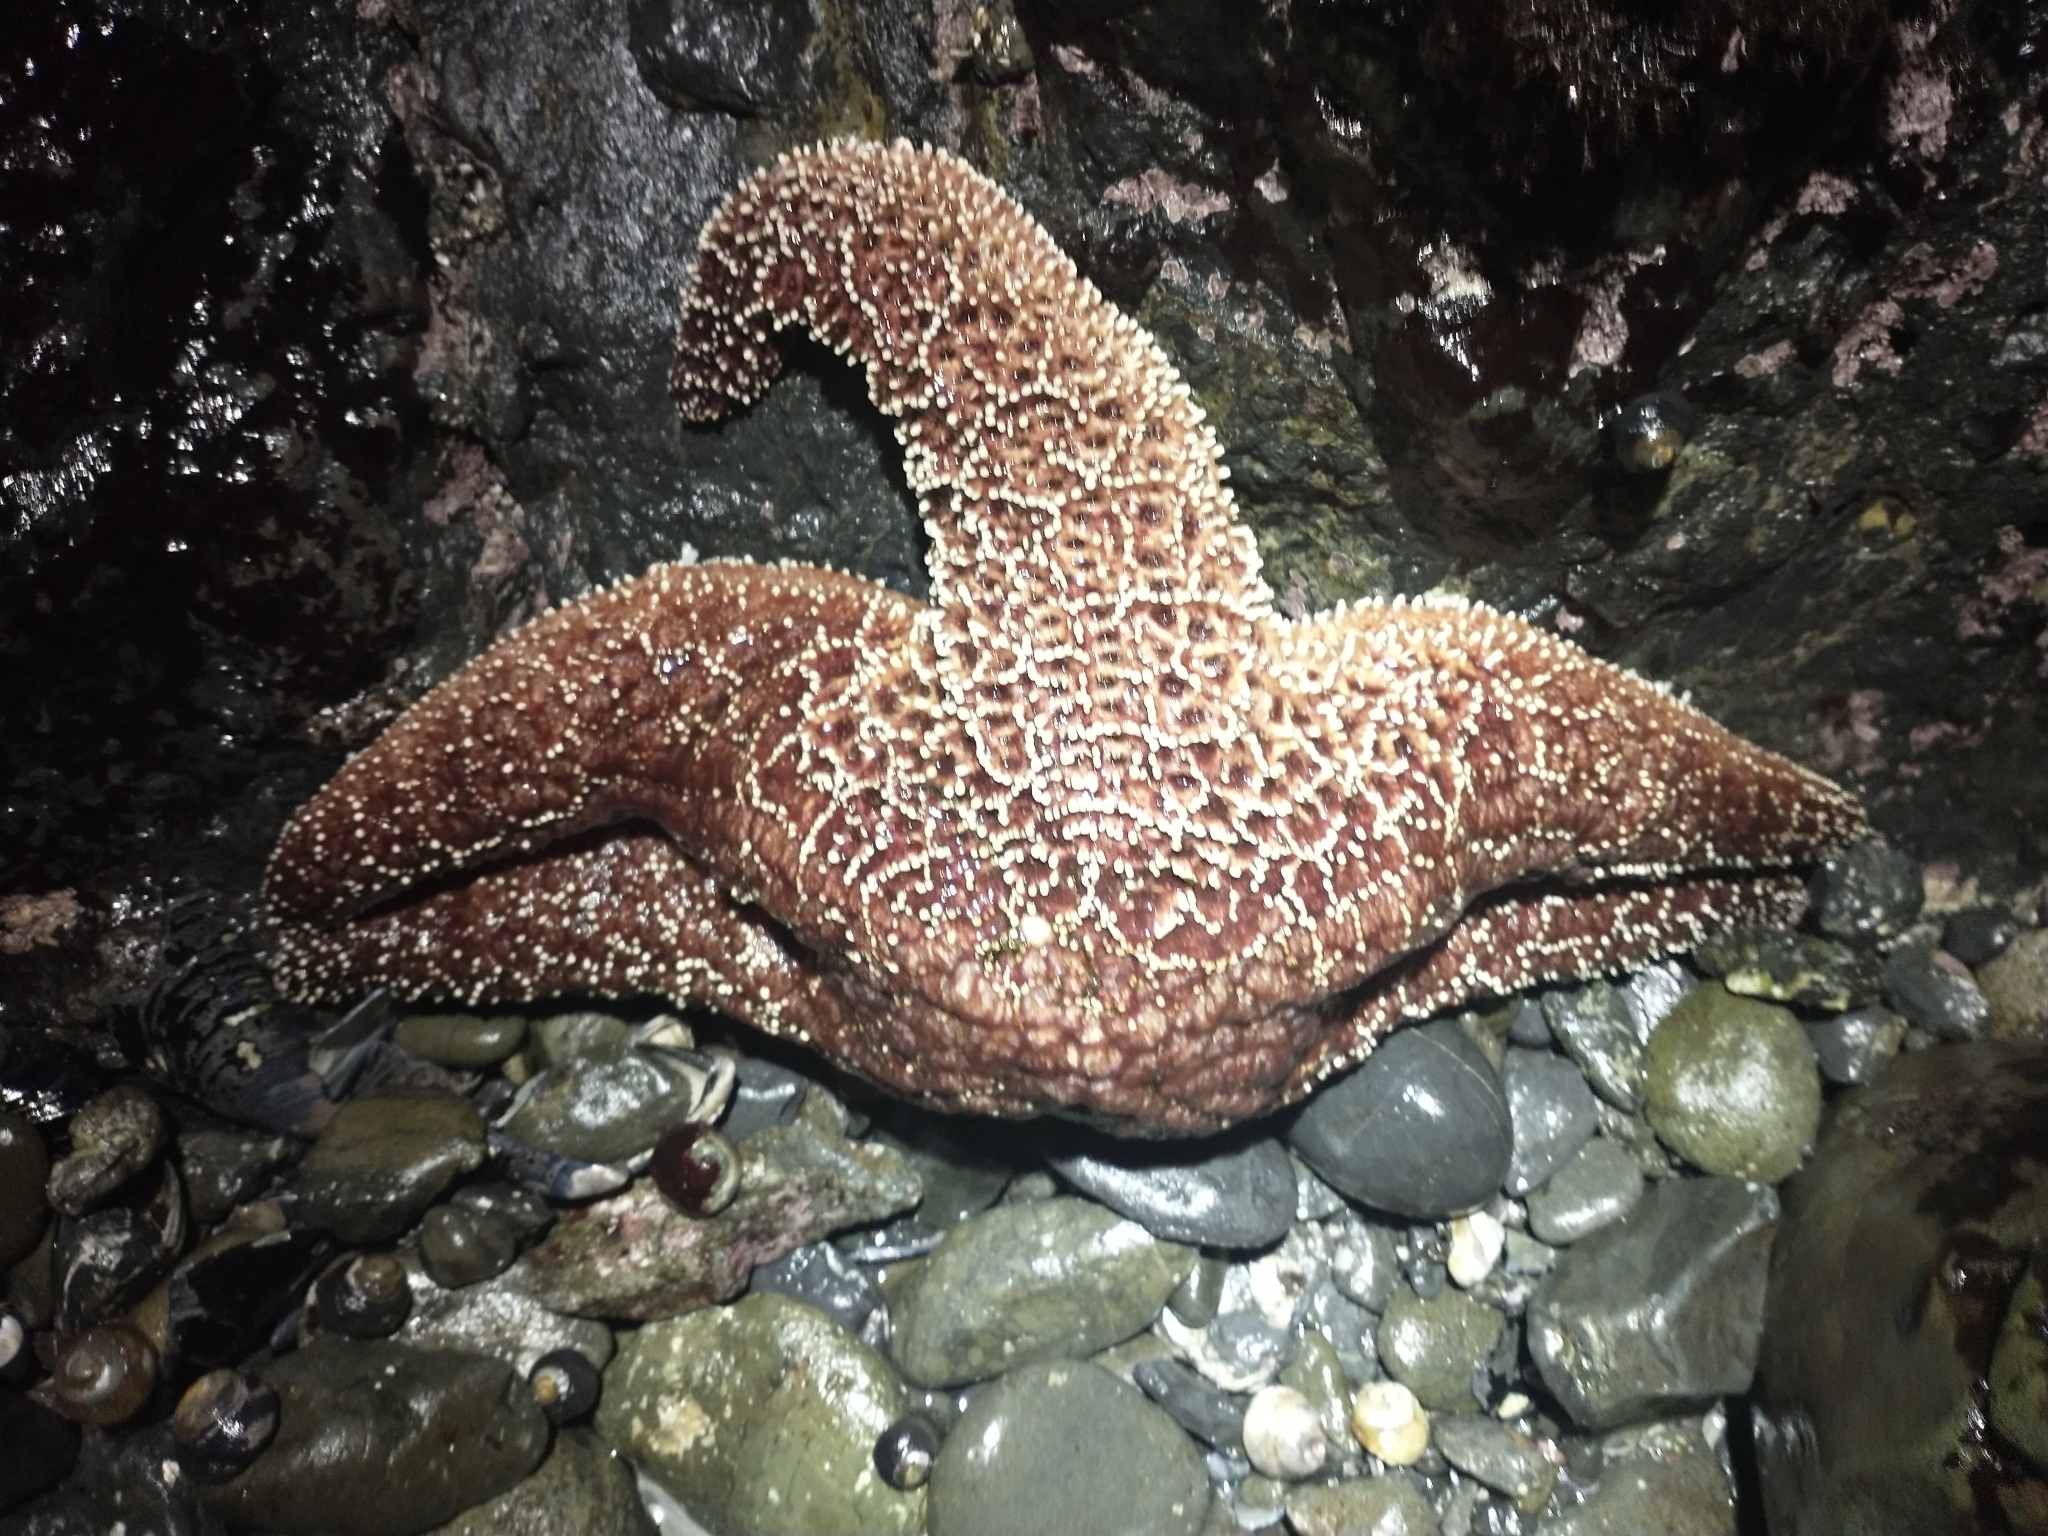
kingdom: Animalia
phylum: Echinodermata
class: Asteroidea
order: Forcipulatida
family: Asteriidae
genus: Pisaster
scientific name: Pisaster ochraceus
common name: Ochre stars
